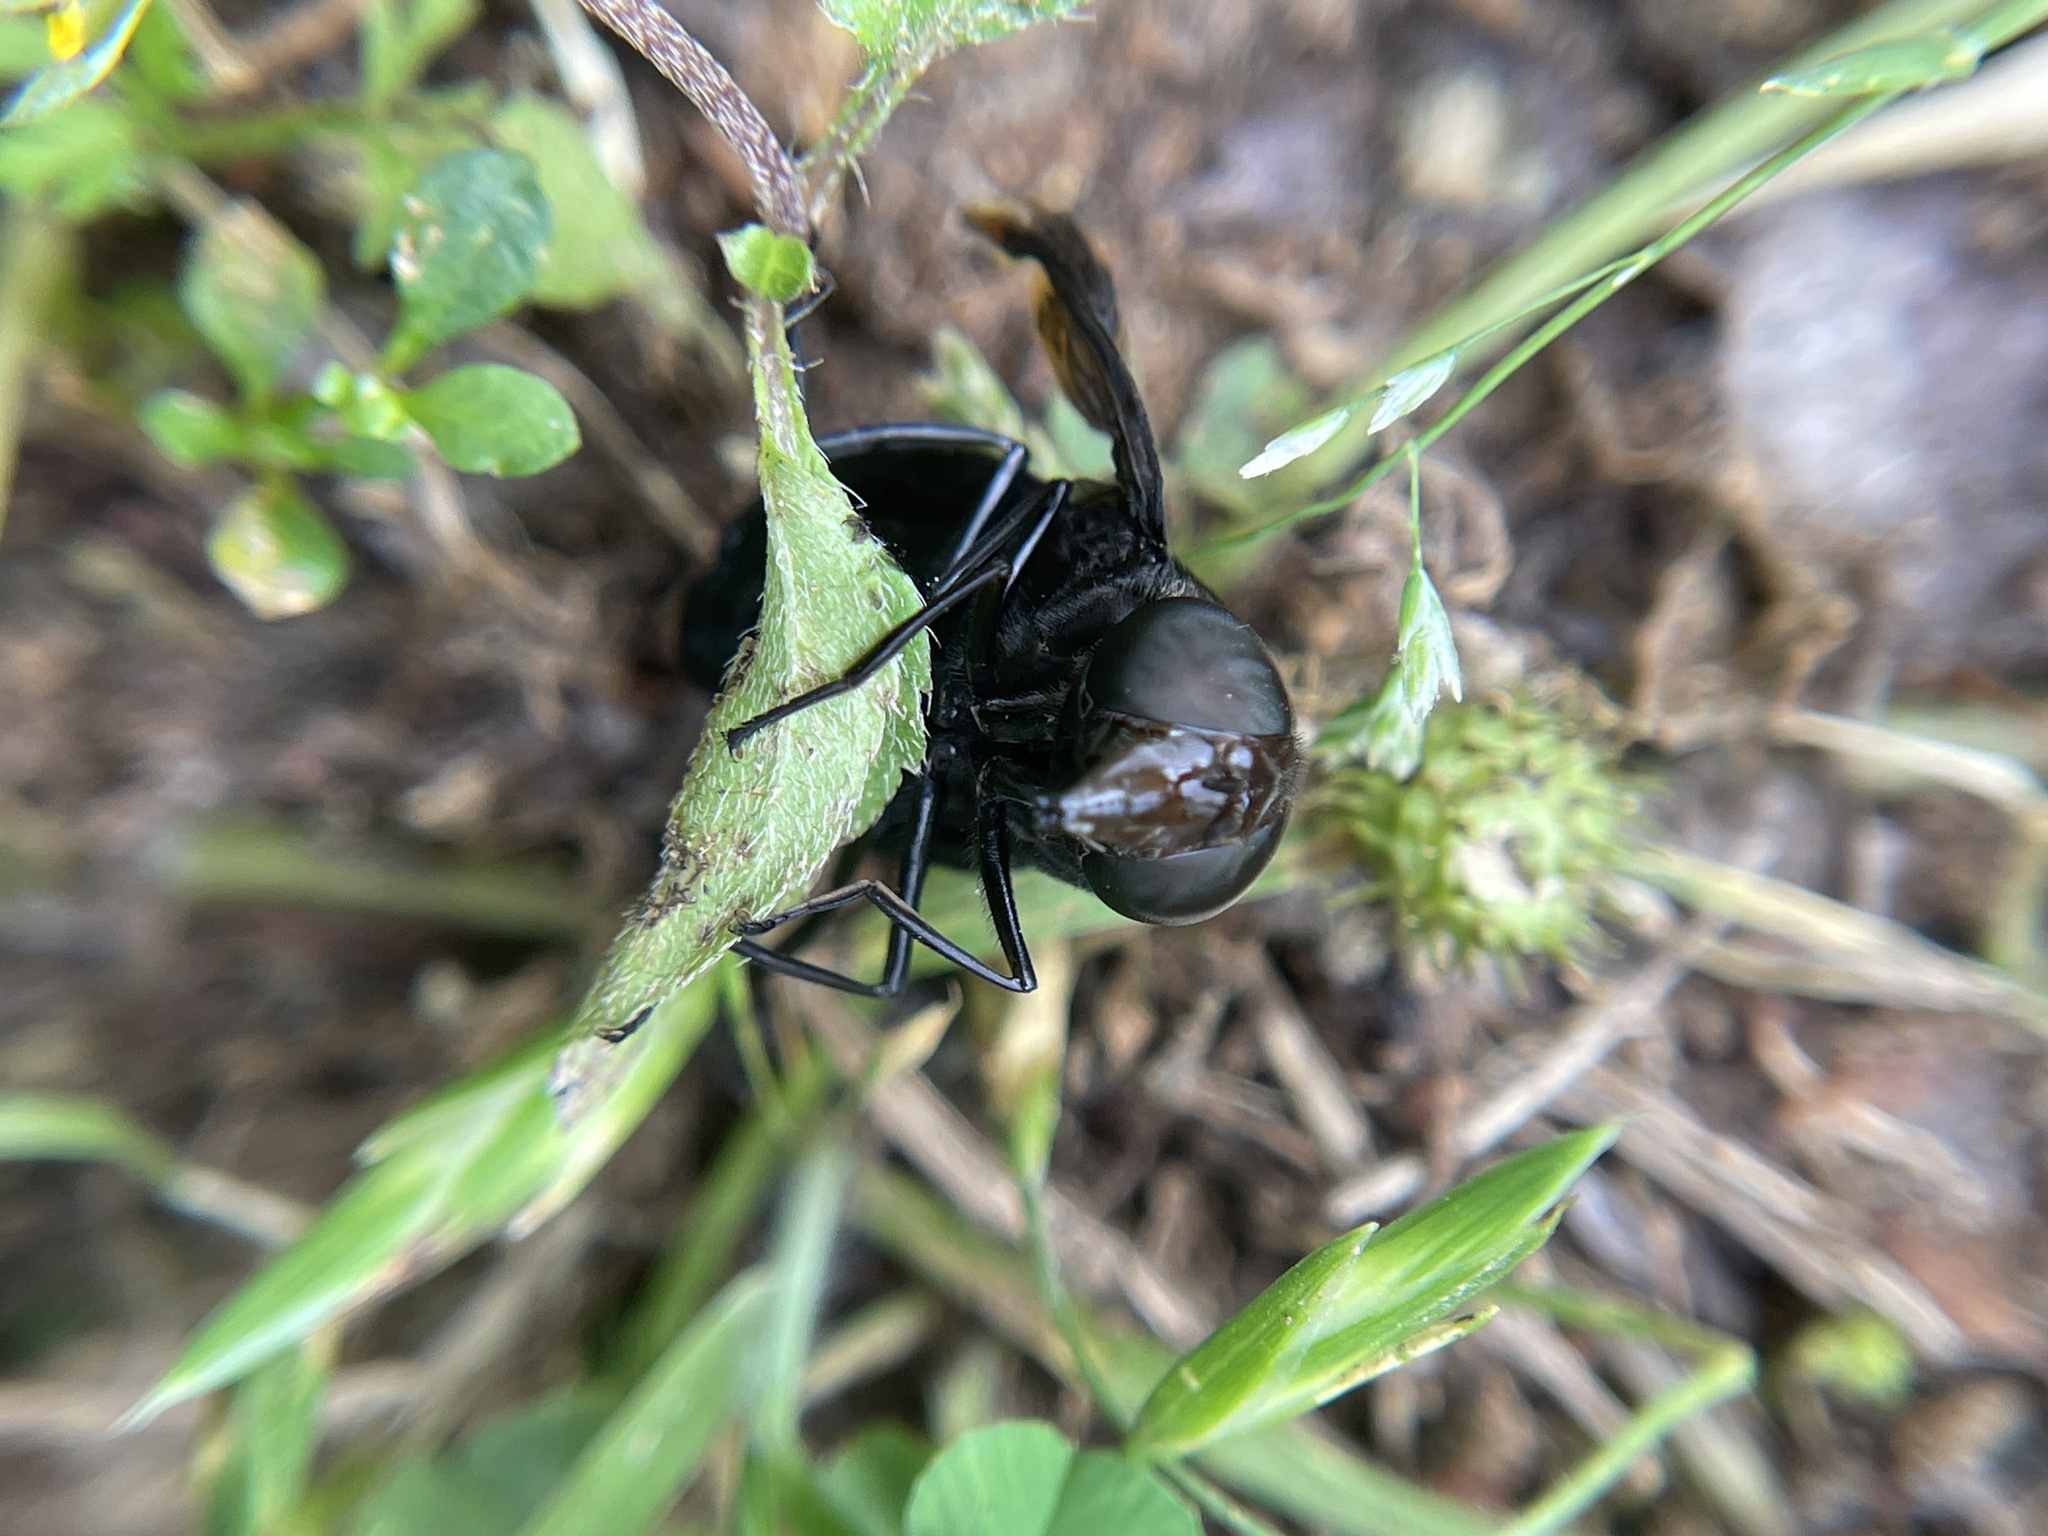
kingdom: Animalia
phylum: Arthropoda
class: Insecta
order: Diptera
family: Syrphidae
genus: Copestylum
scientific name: Copestylum mexicanum
